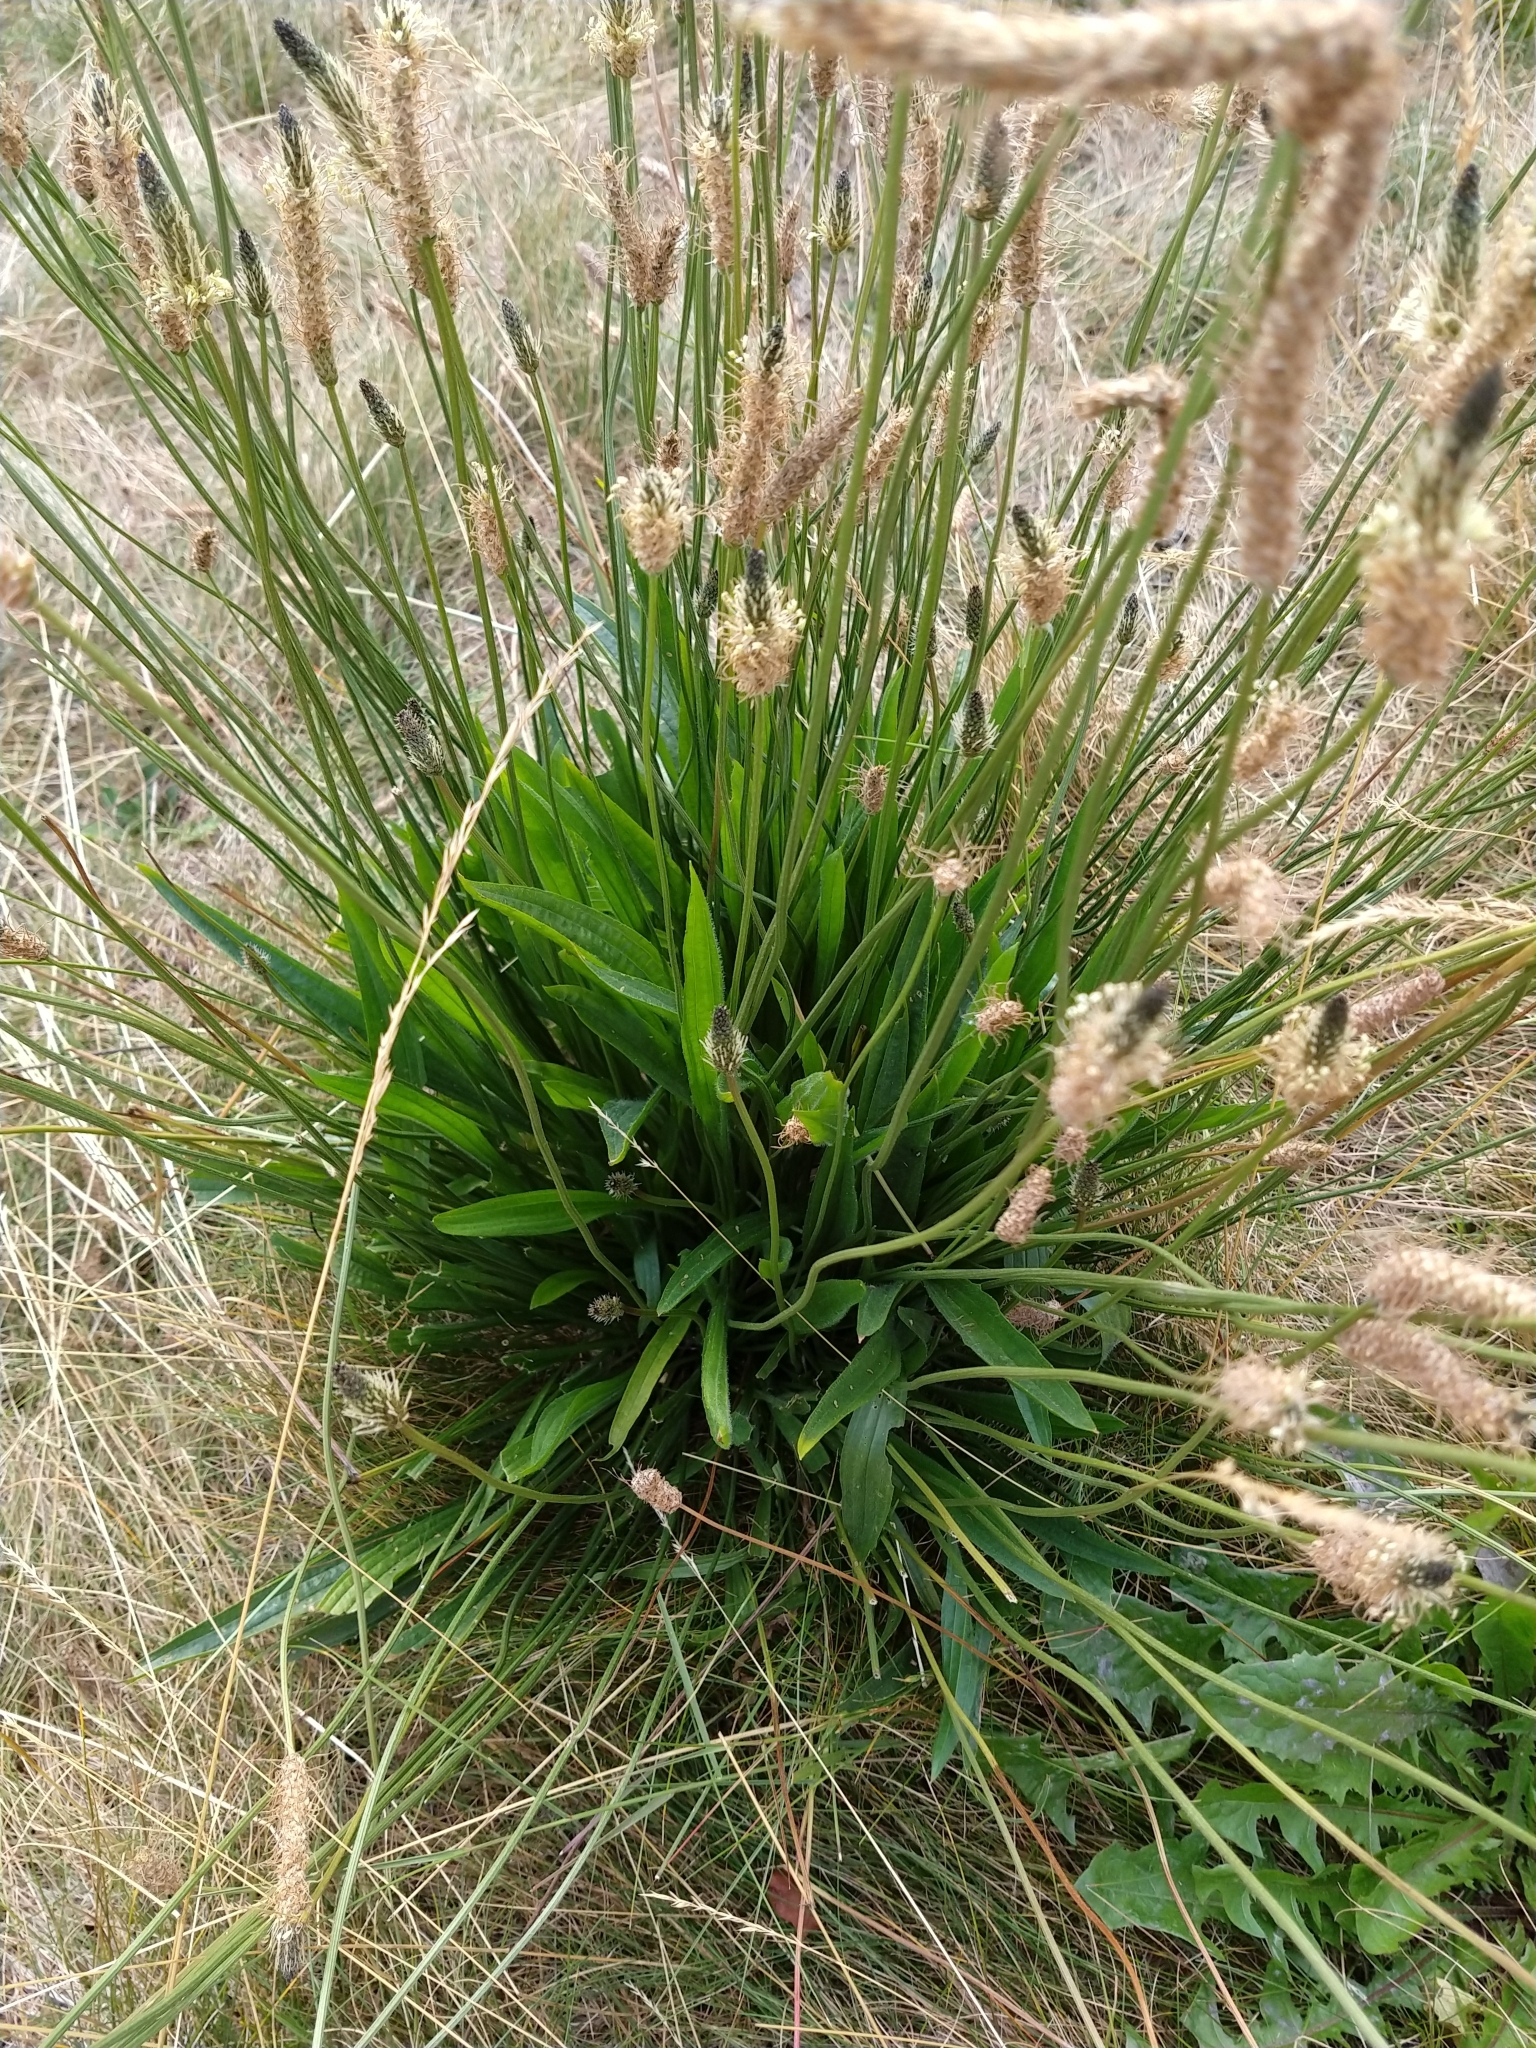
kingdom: Plantae
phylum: Tracheophyta
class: Magnoliopsida
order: Lamiales
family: Plantaginaceae
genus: Plantago
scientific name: Plantago lanceolata
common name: Ribwort plantain
